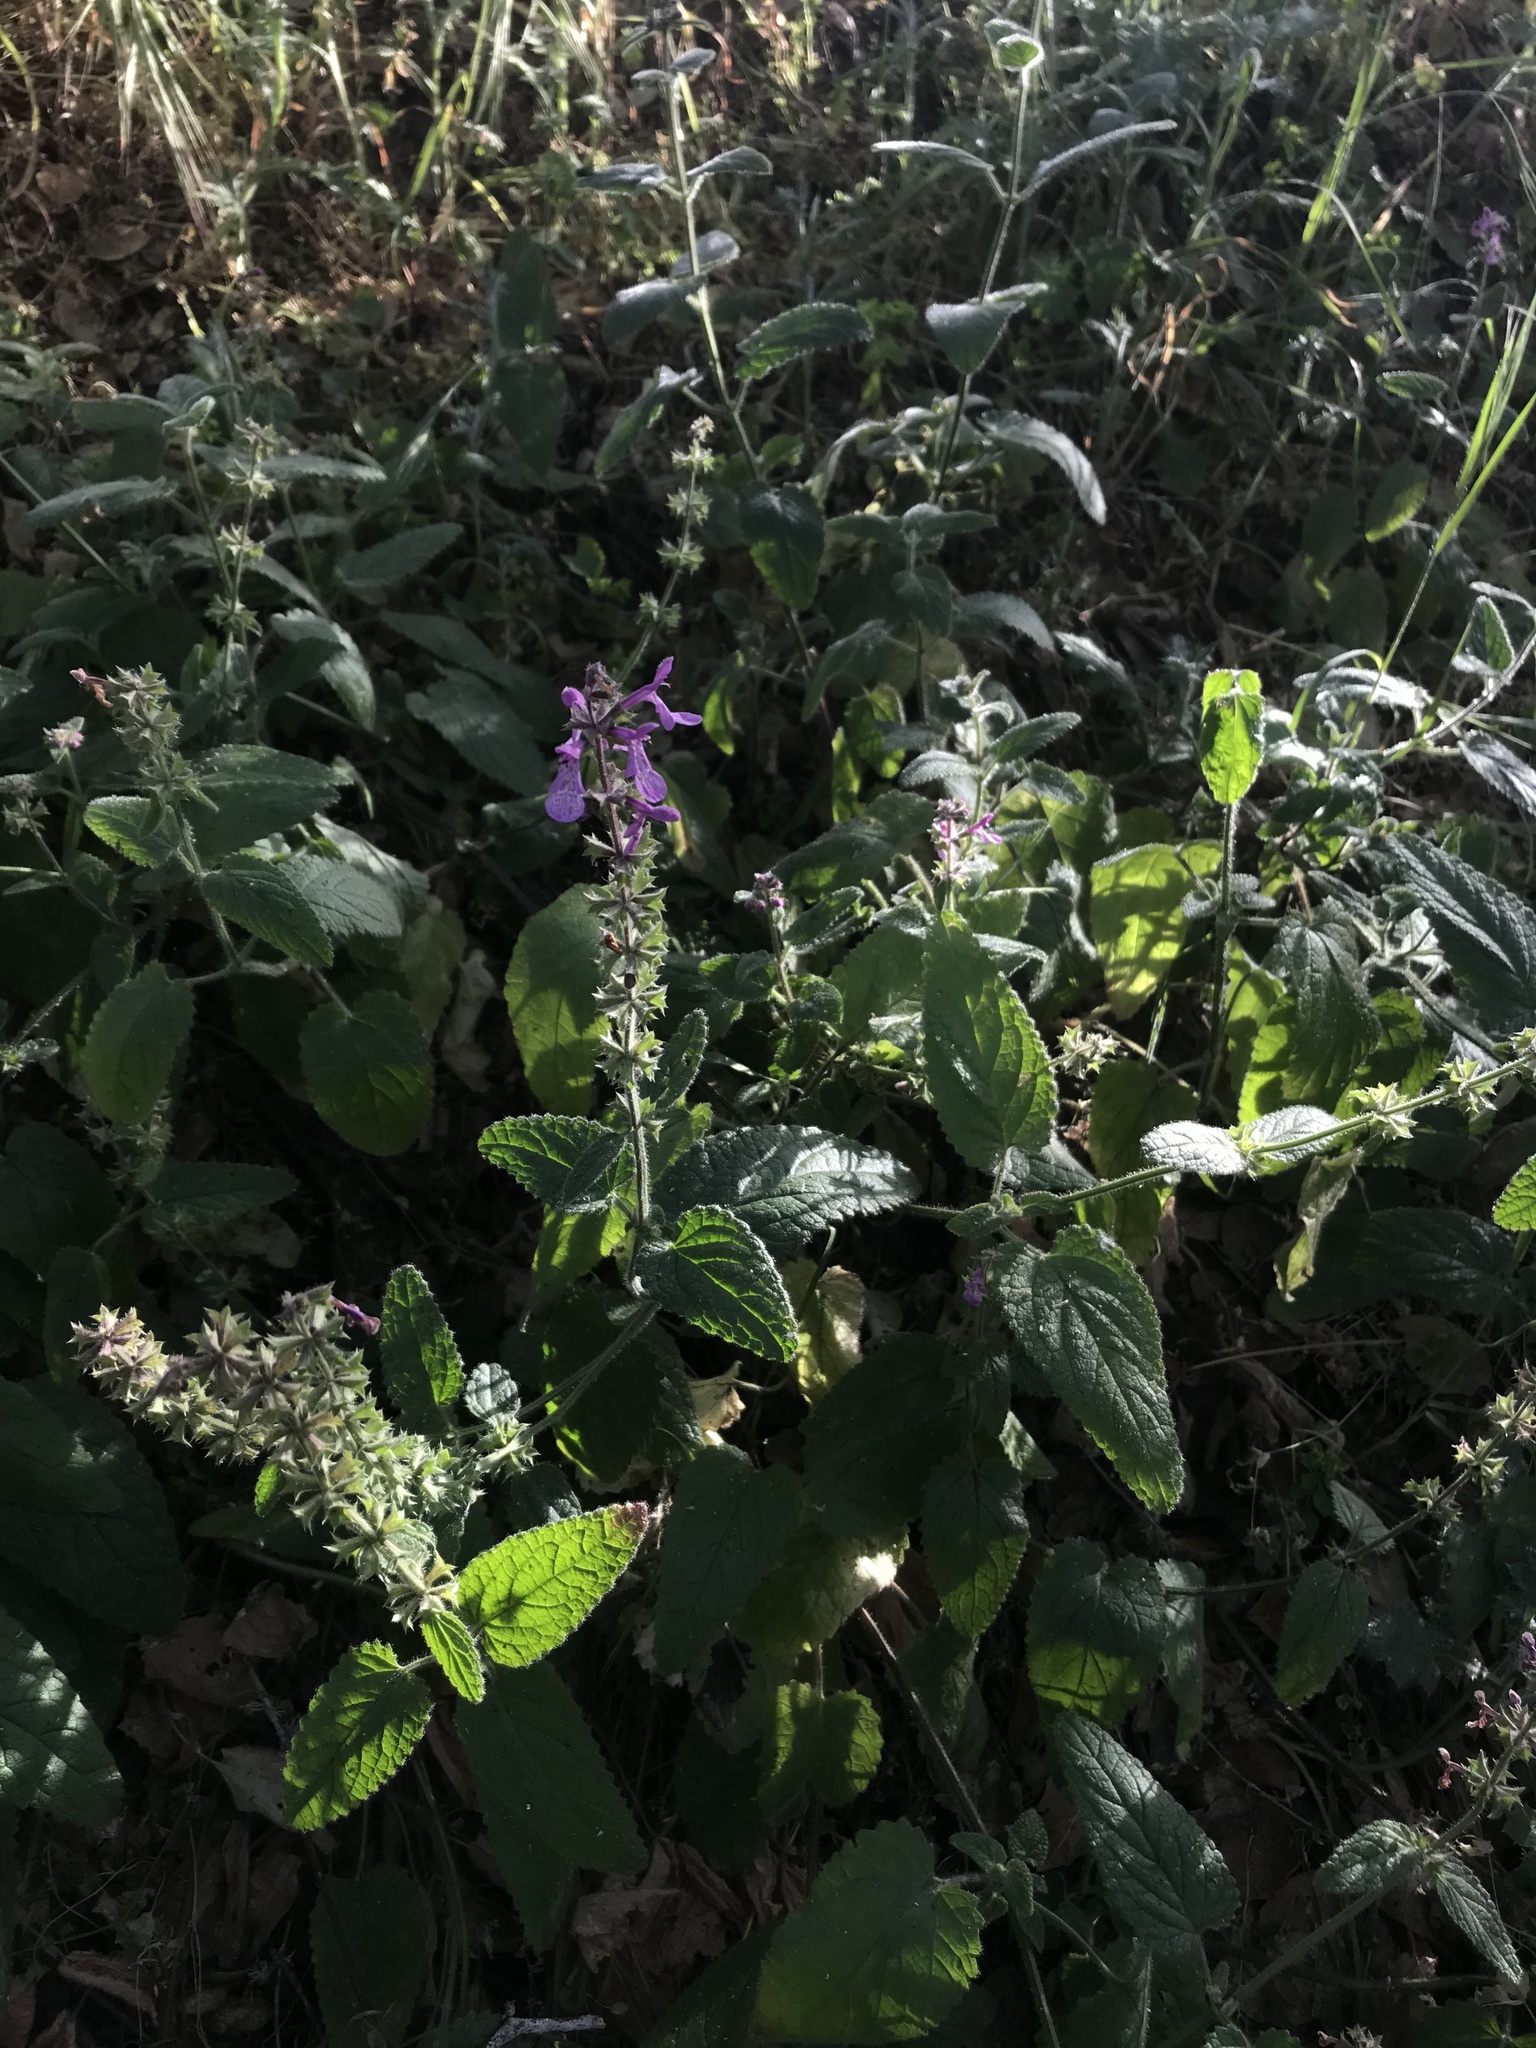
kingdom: Plantae
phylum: Tracheophyta
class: Magnoliopsida
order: Lamiales
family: Lamiaceae
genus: Stachys
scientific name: Stachys bullata
